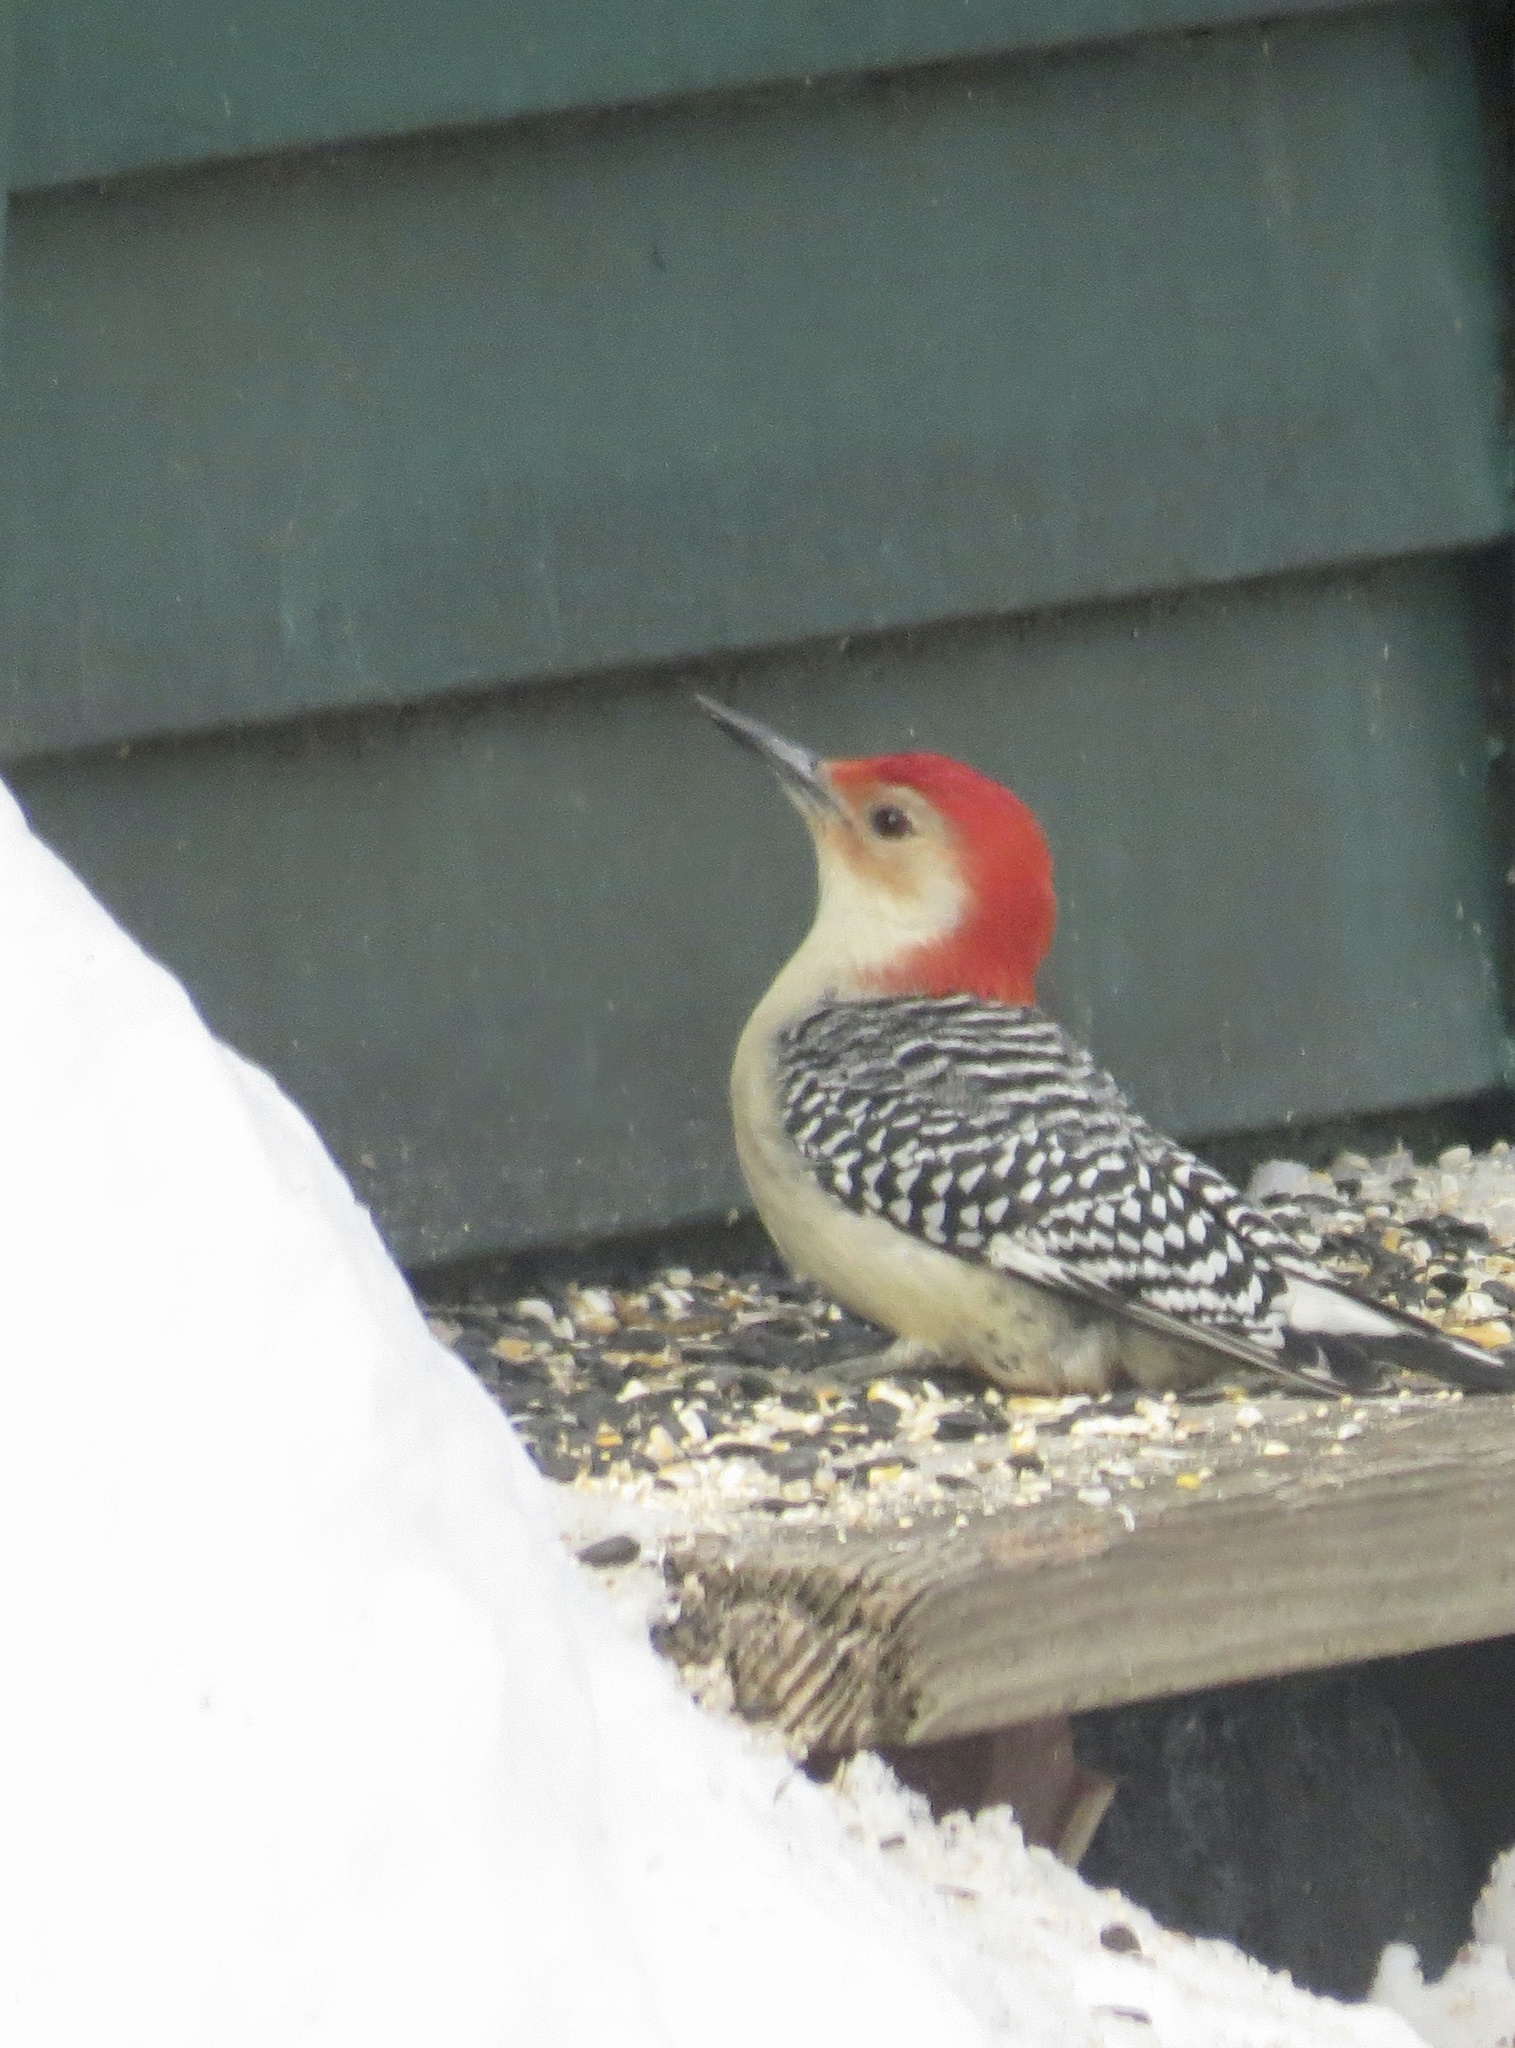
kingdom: Animalia
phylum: Chordata
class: Aves
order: Piciformes
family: Picidae
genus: Melanerpes
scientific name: Melanerpes carolinus
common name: Red-bellied woodpecker
